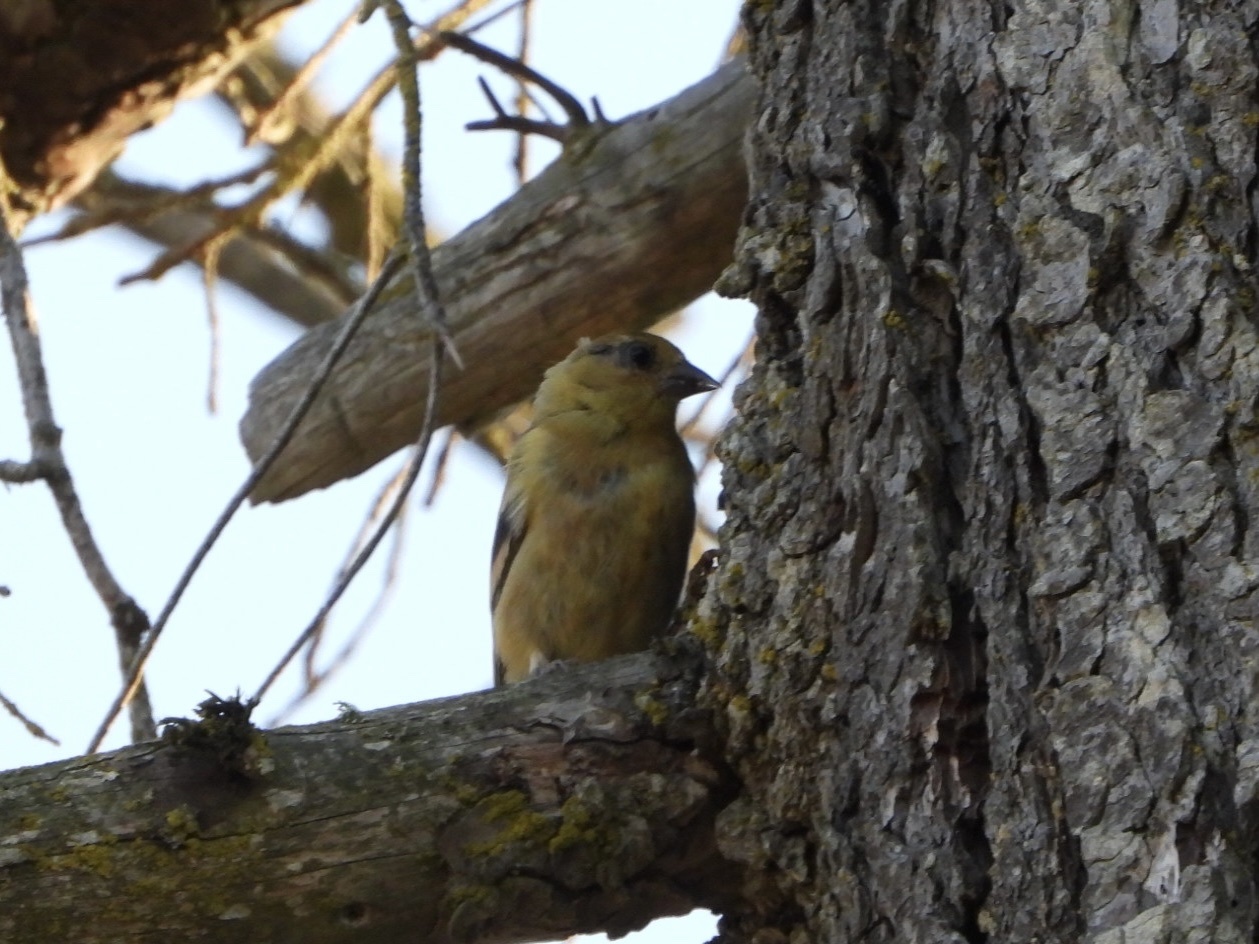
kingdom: Animalia
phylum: Chordata
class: Aves
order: Passeriformes
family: Fringillidae
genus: Spinus
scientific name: Spinus tristis
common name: American goldfinch
